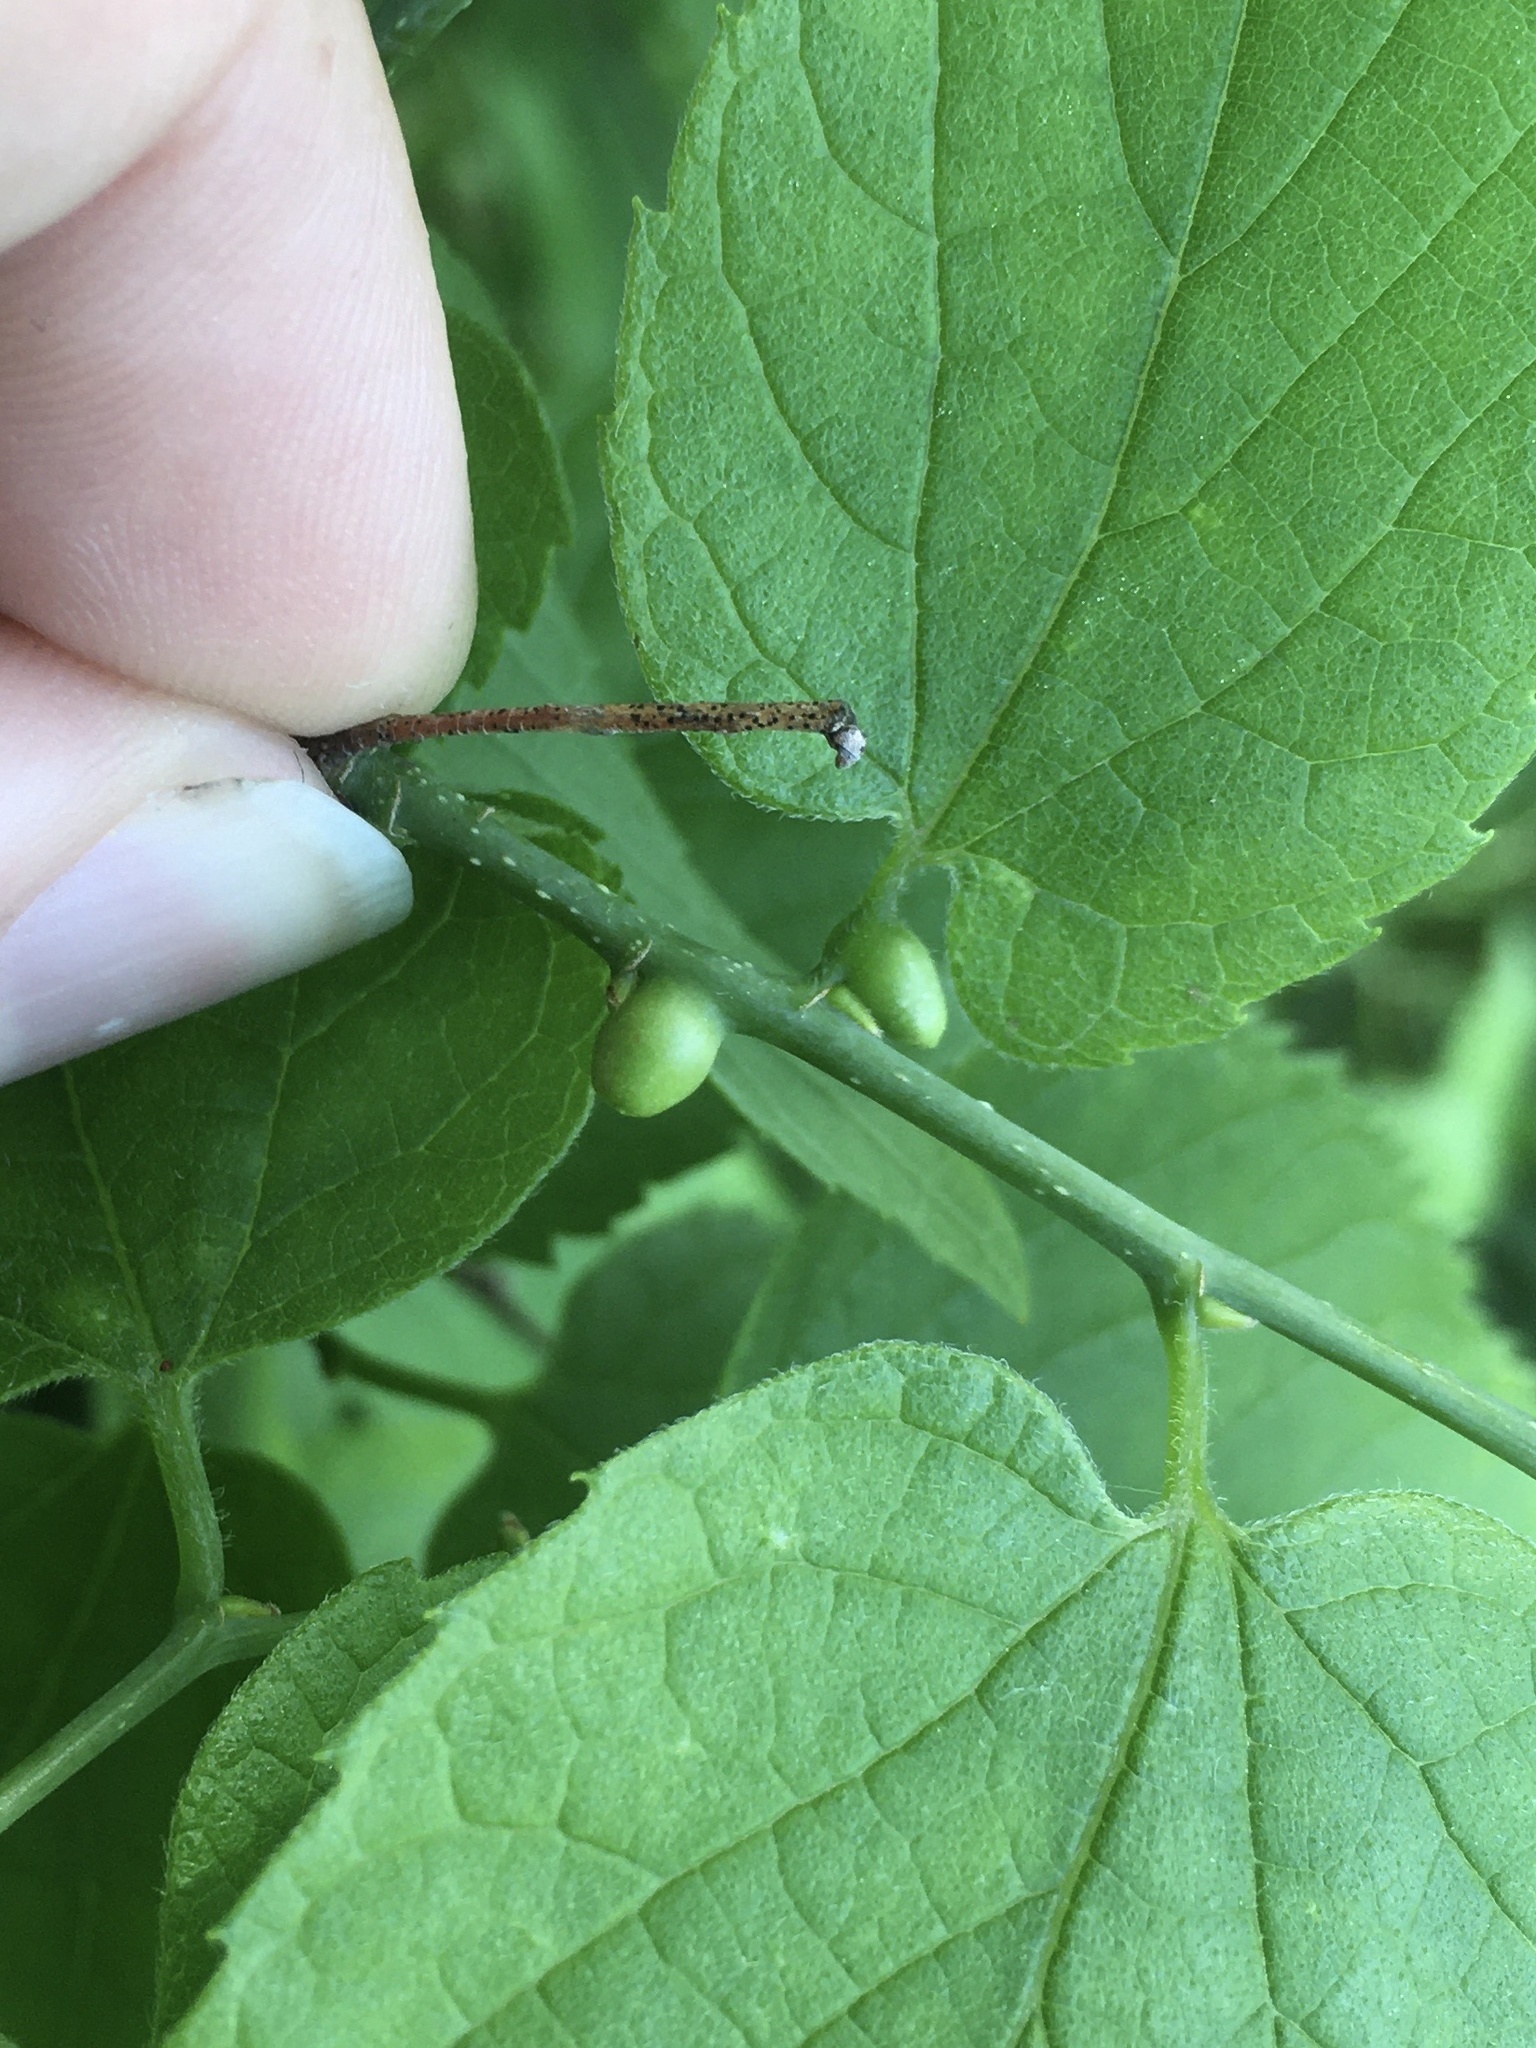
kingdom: Animalia
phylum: Arthropoda
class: Insecta
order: Diptera
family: Cecidomyiidae
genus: Celticecis
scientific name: Celticecis expulsa
